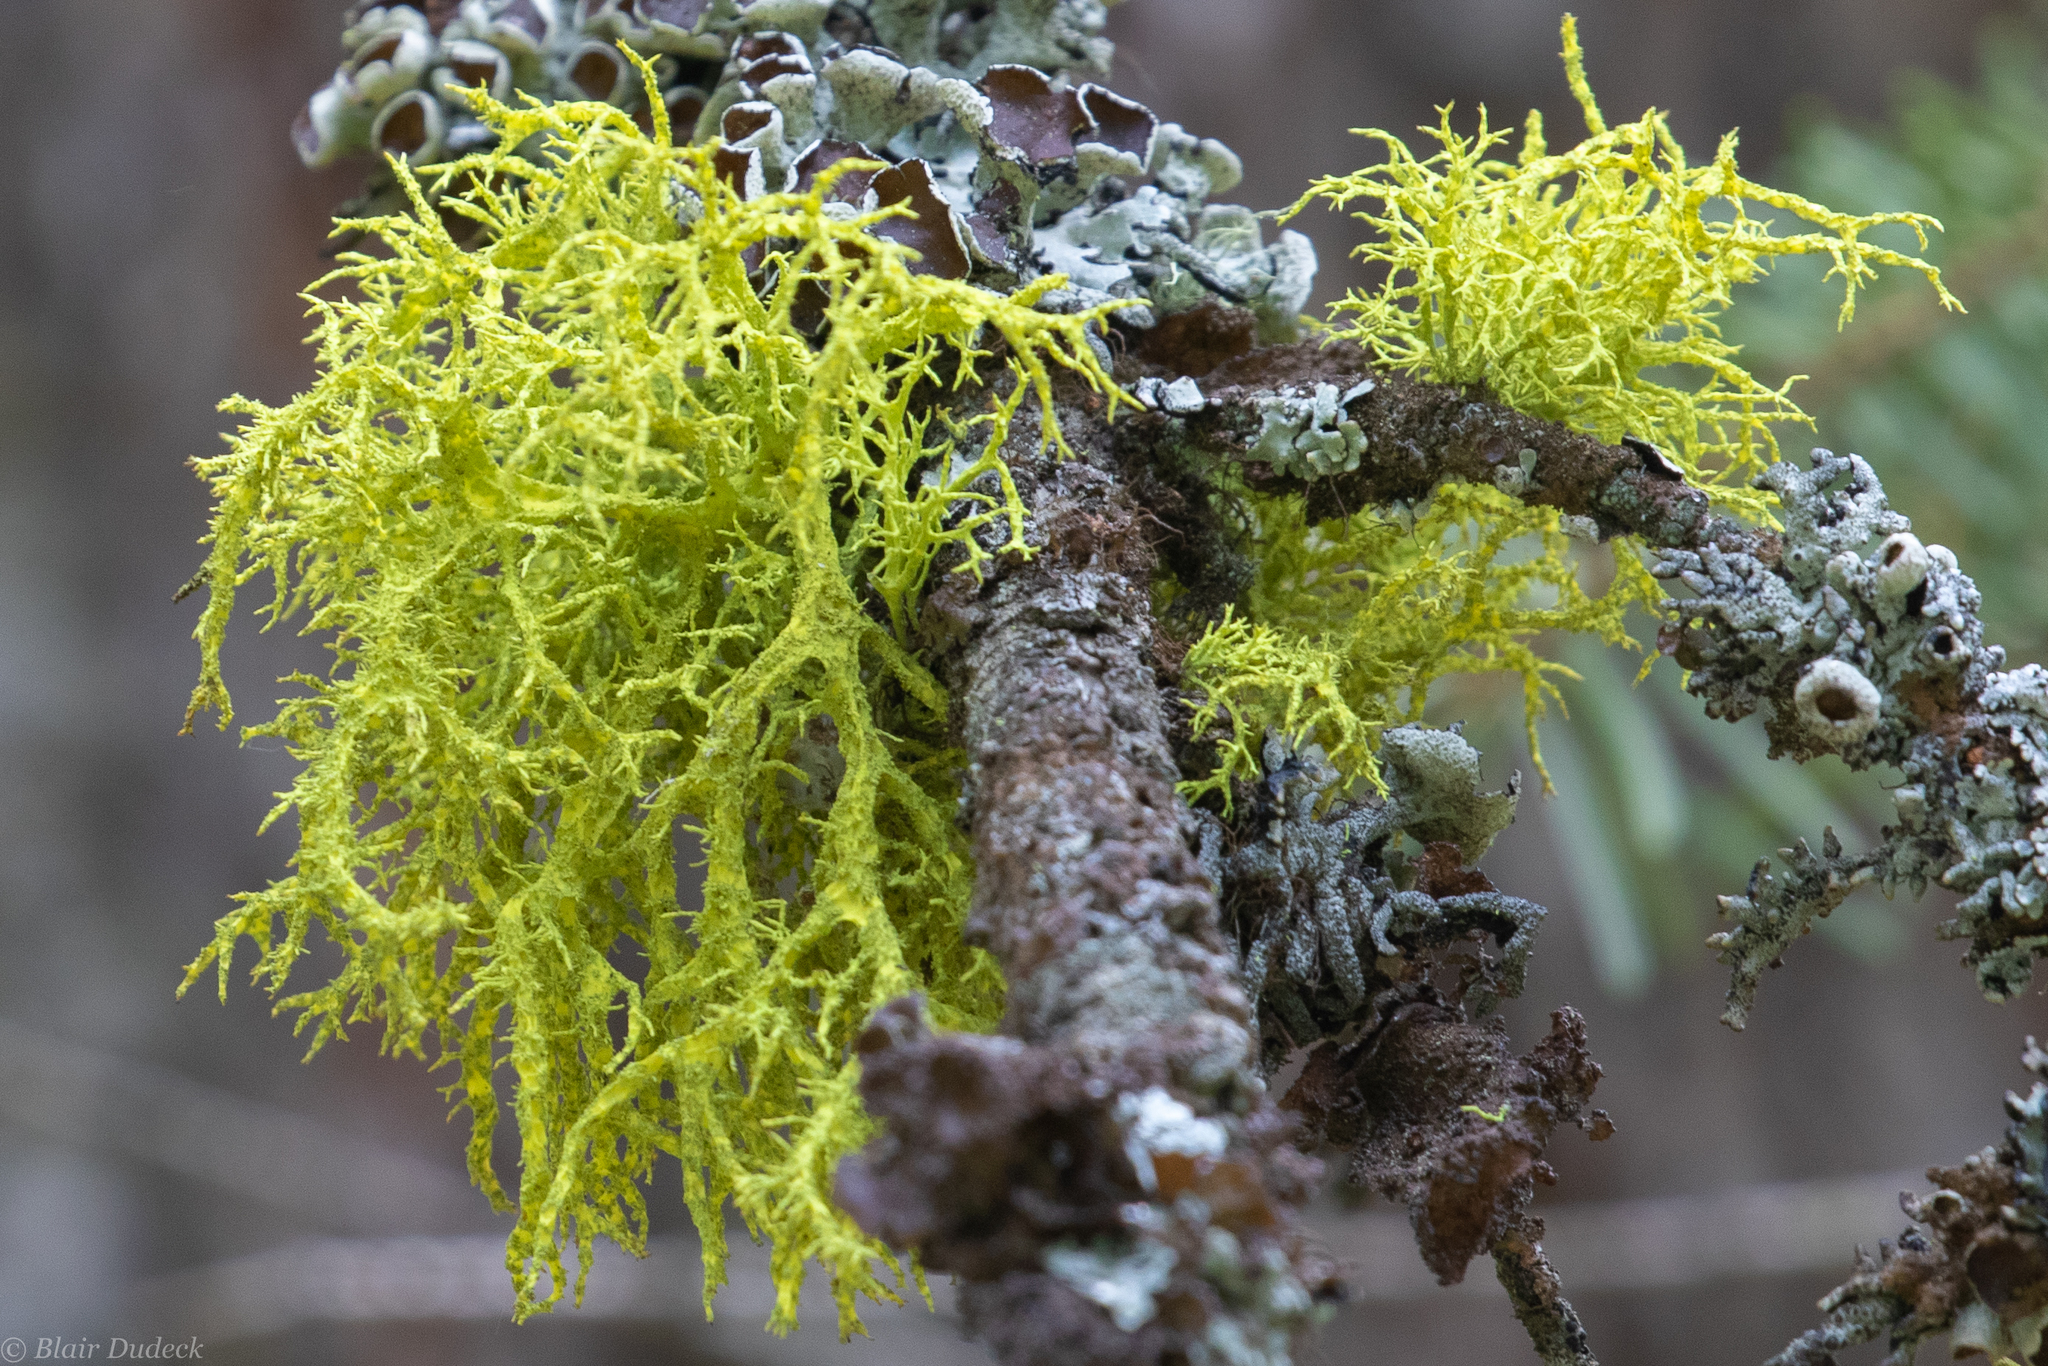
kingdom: Fungi
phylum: Ascomycota
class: Lecanoromycetes
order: Lecanorales
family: Parmeliaceae
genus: Letharia
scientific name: Letharia vulpina
